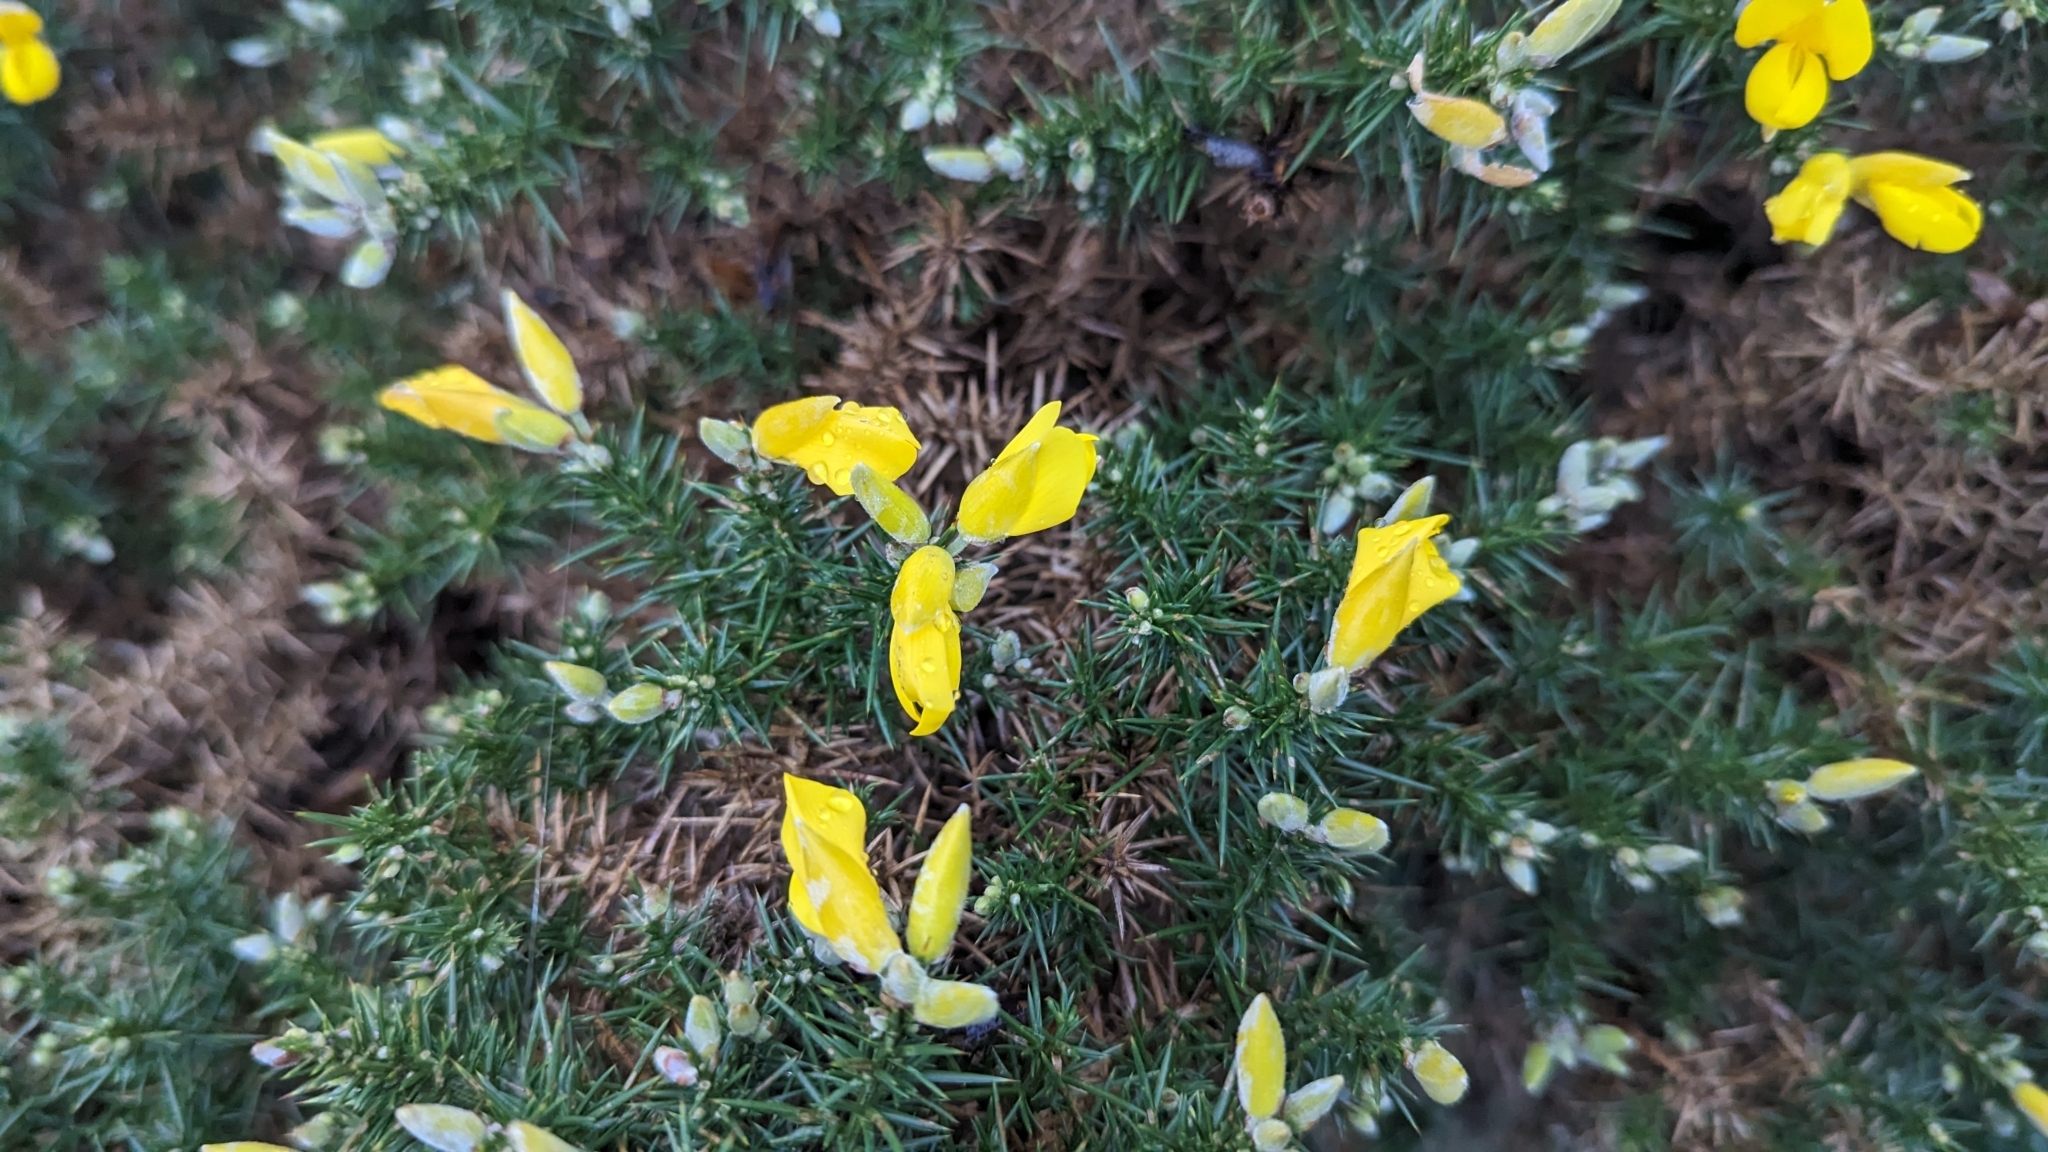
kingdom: Plantae
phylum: Tracheophyta
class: Magnoliopsida
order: Fabales
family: Fabaceae
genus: Ulex
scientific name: Ulex europaeus
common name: Common gorse
